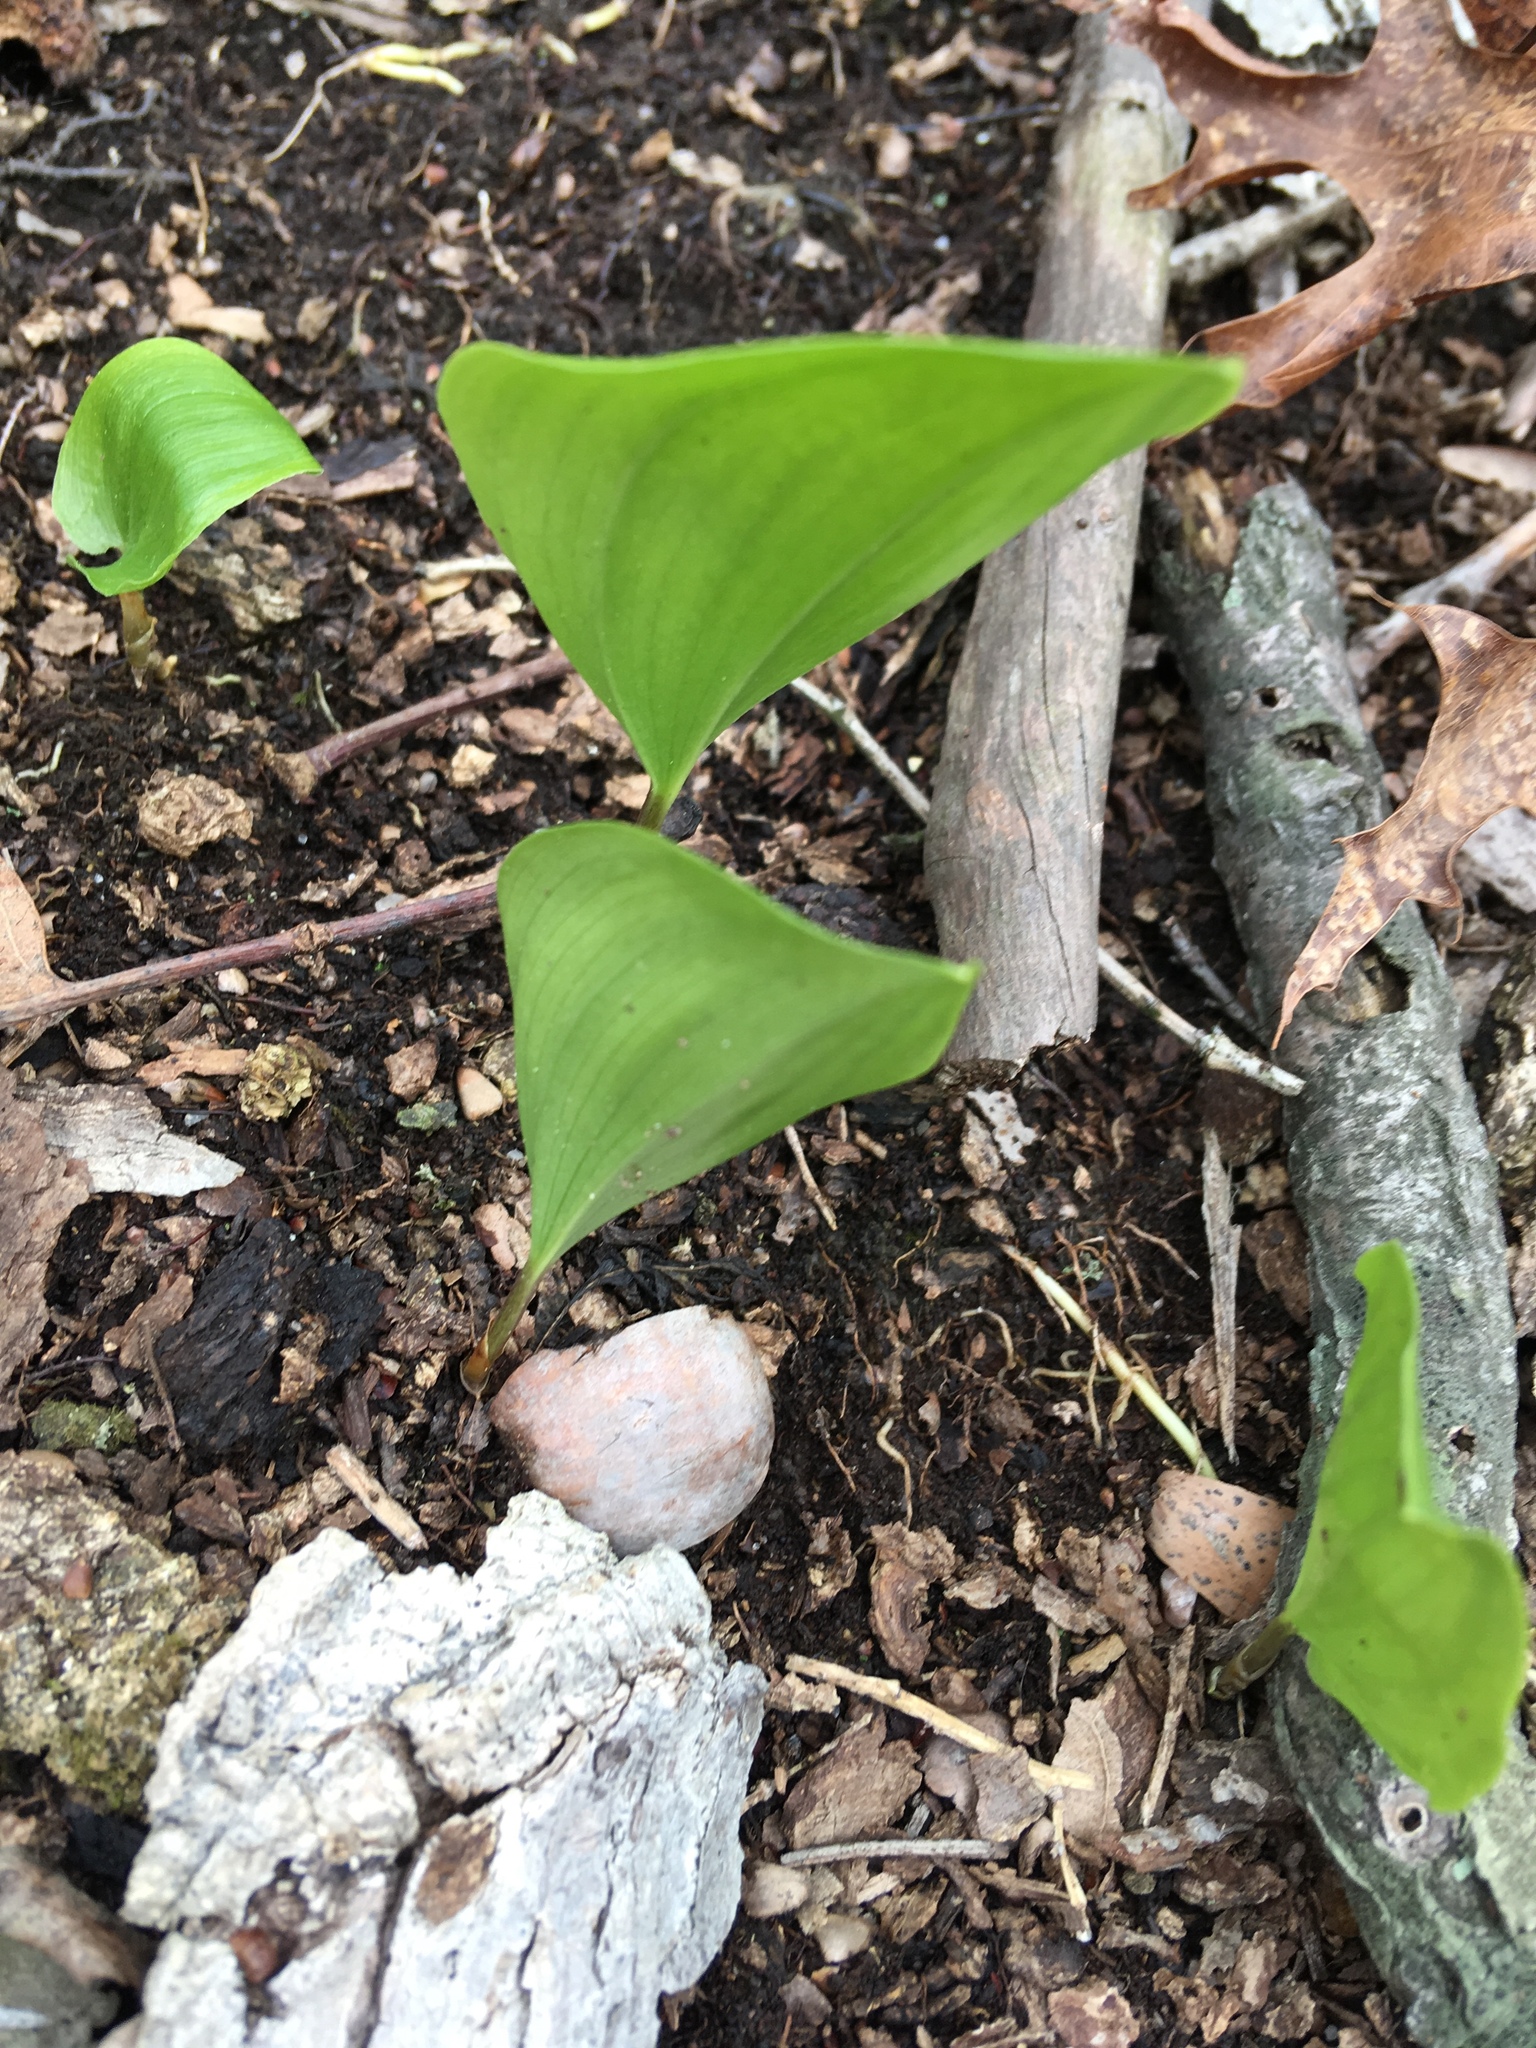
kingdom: Plantae
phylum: Tracheophyta
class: Liliopsida
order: Asparagales
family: Asparagaceae
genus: Maianthemum
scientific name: Maianthemum canadense
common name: False lily-of-the-valley
